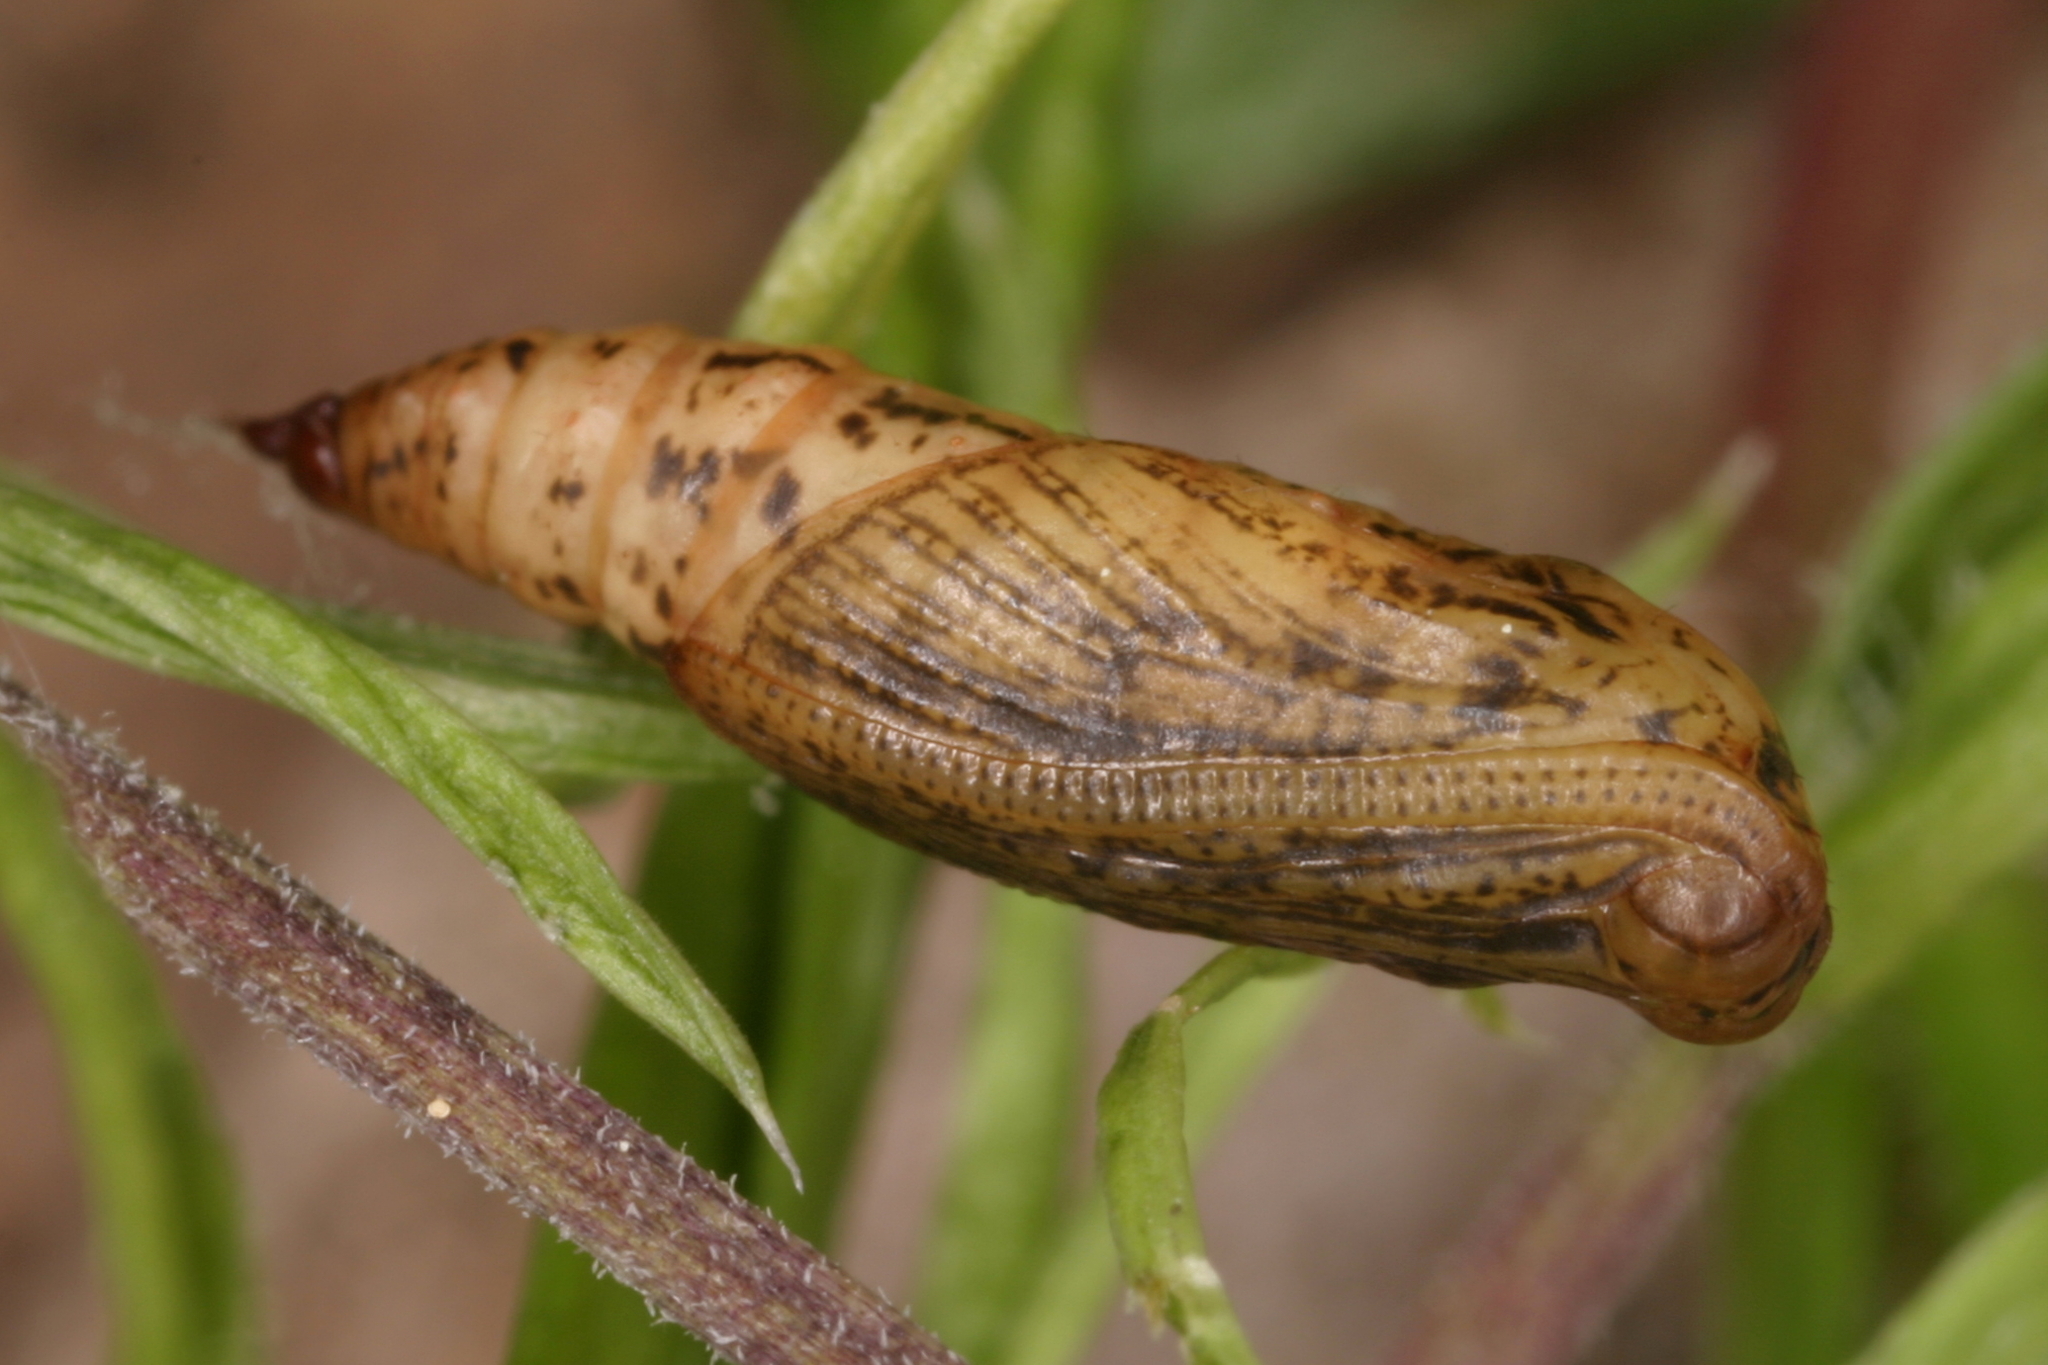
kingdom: Animalia
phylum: Arthropoda
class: Insecta
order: Lepidoptera
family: Geometridae
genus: Idaea
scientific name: Idaea seriata
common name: Small dusty wave
